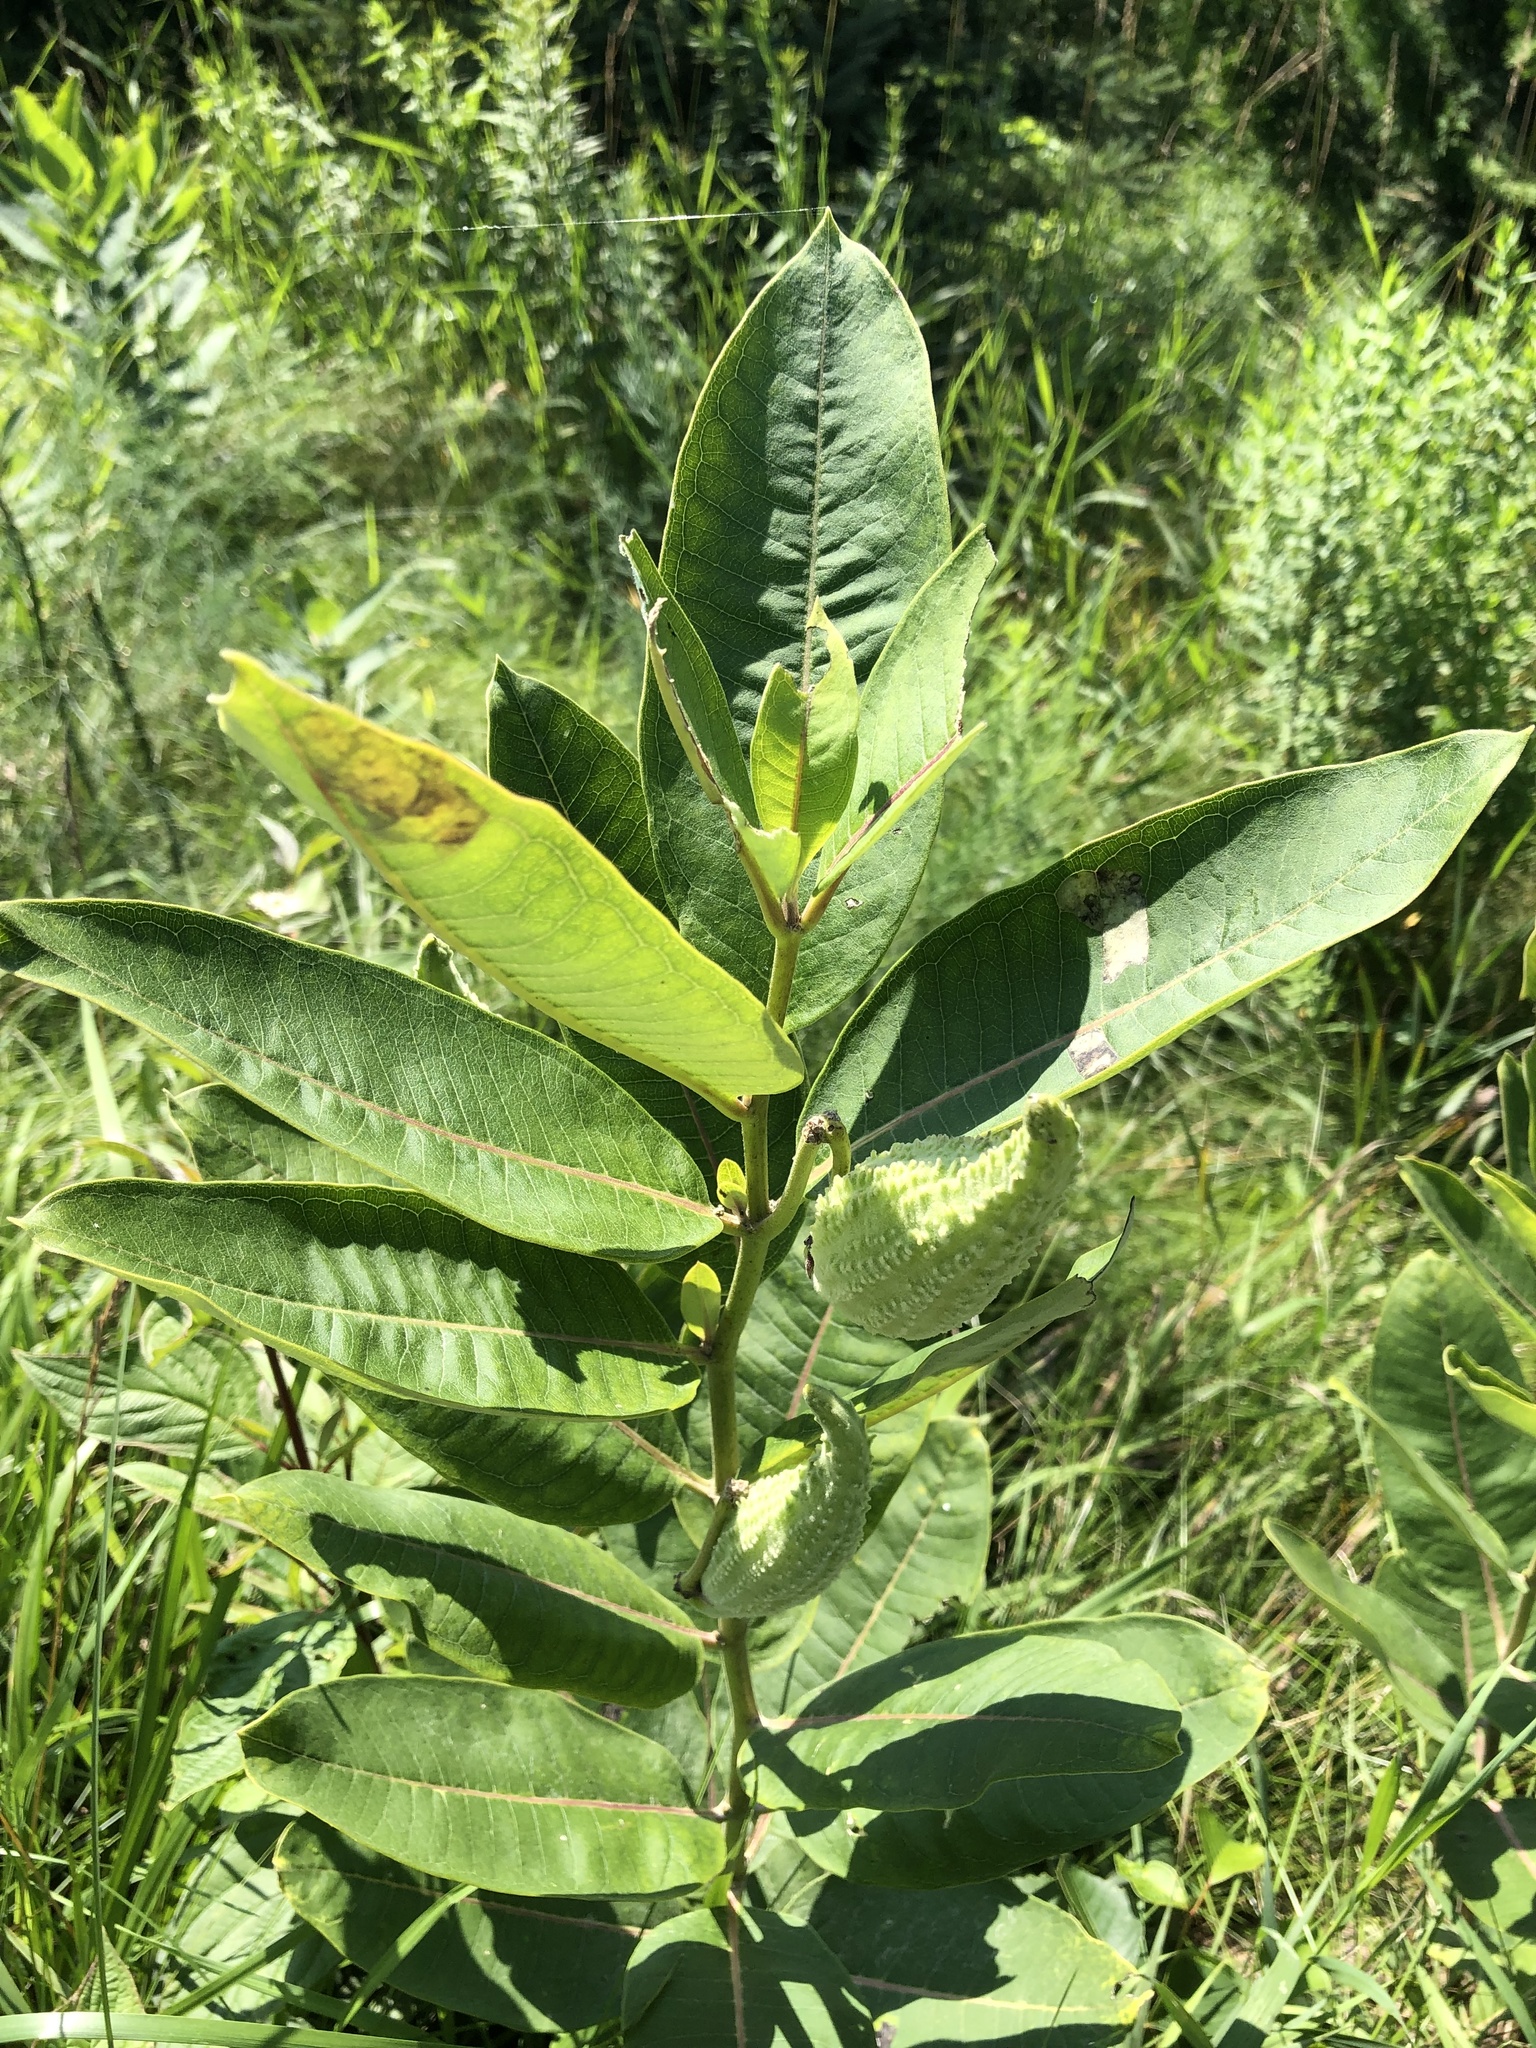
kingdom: Plantae
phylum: Tracheophyta
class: Magnoliopsida
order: Gentianales
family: Apocynaceae
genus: Asclepias
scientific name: Asclepias syriaca
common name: Common milkweed
